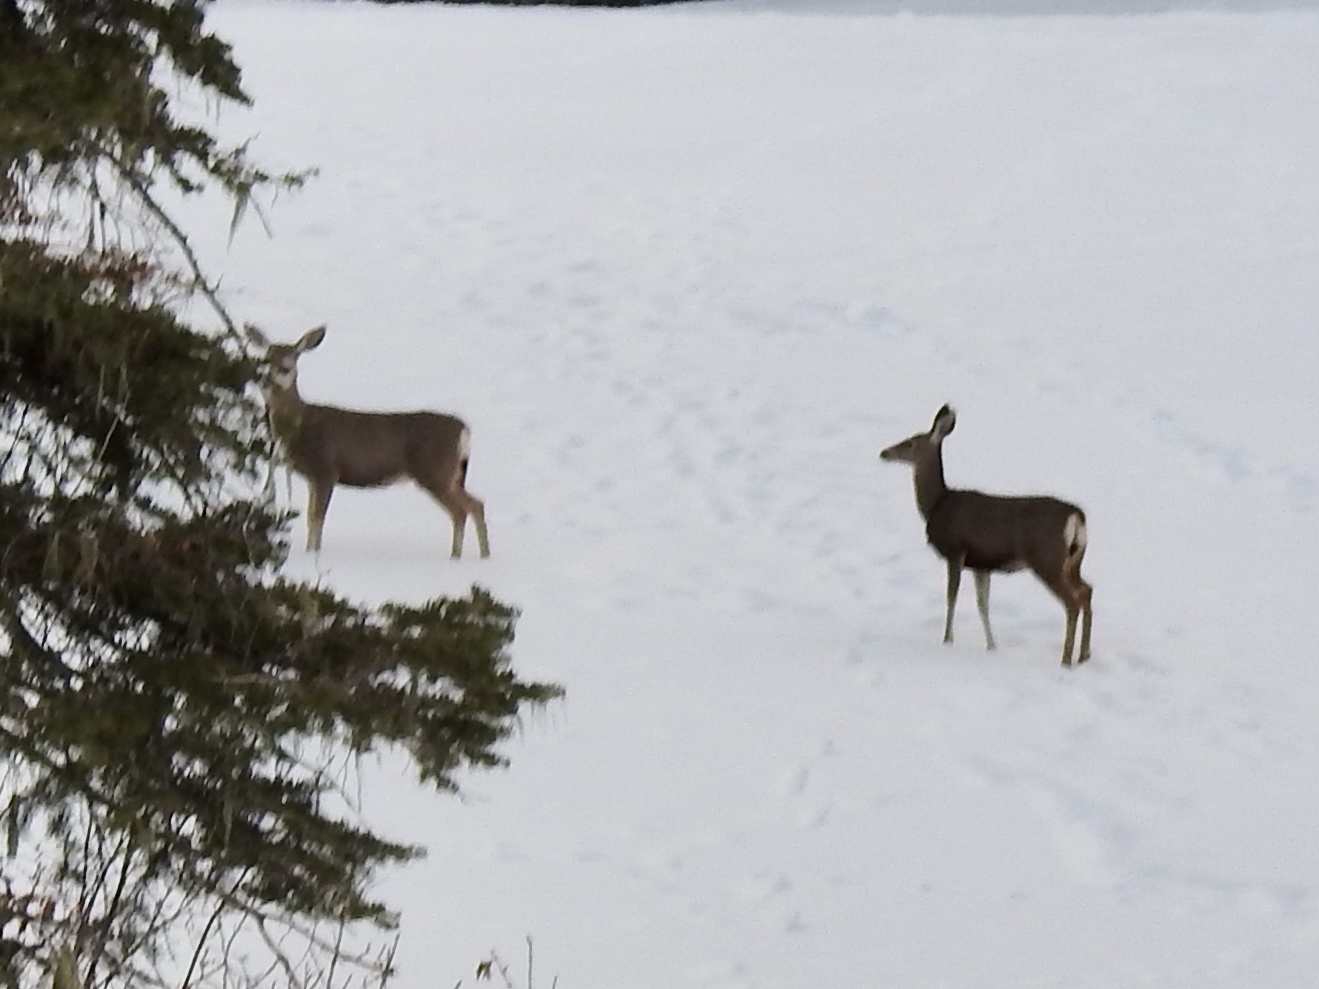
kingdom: Animalia
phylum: Chordata
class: Mammalia
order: Artiodactyla
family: Cervidae
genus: Odocoileus
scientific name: Odocoileus hemionus
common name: Mule deer
